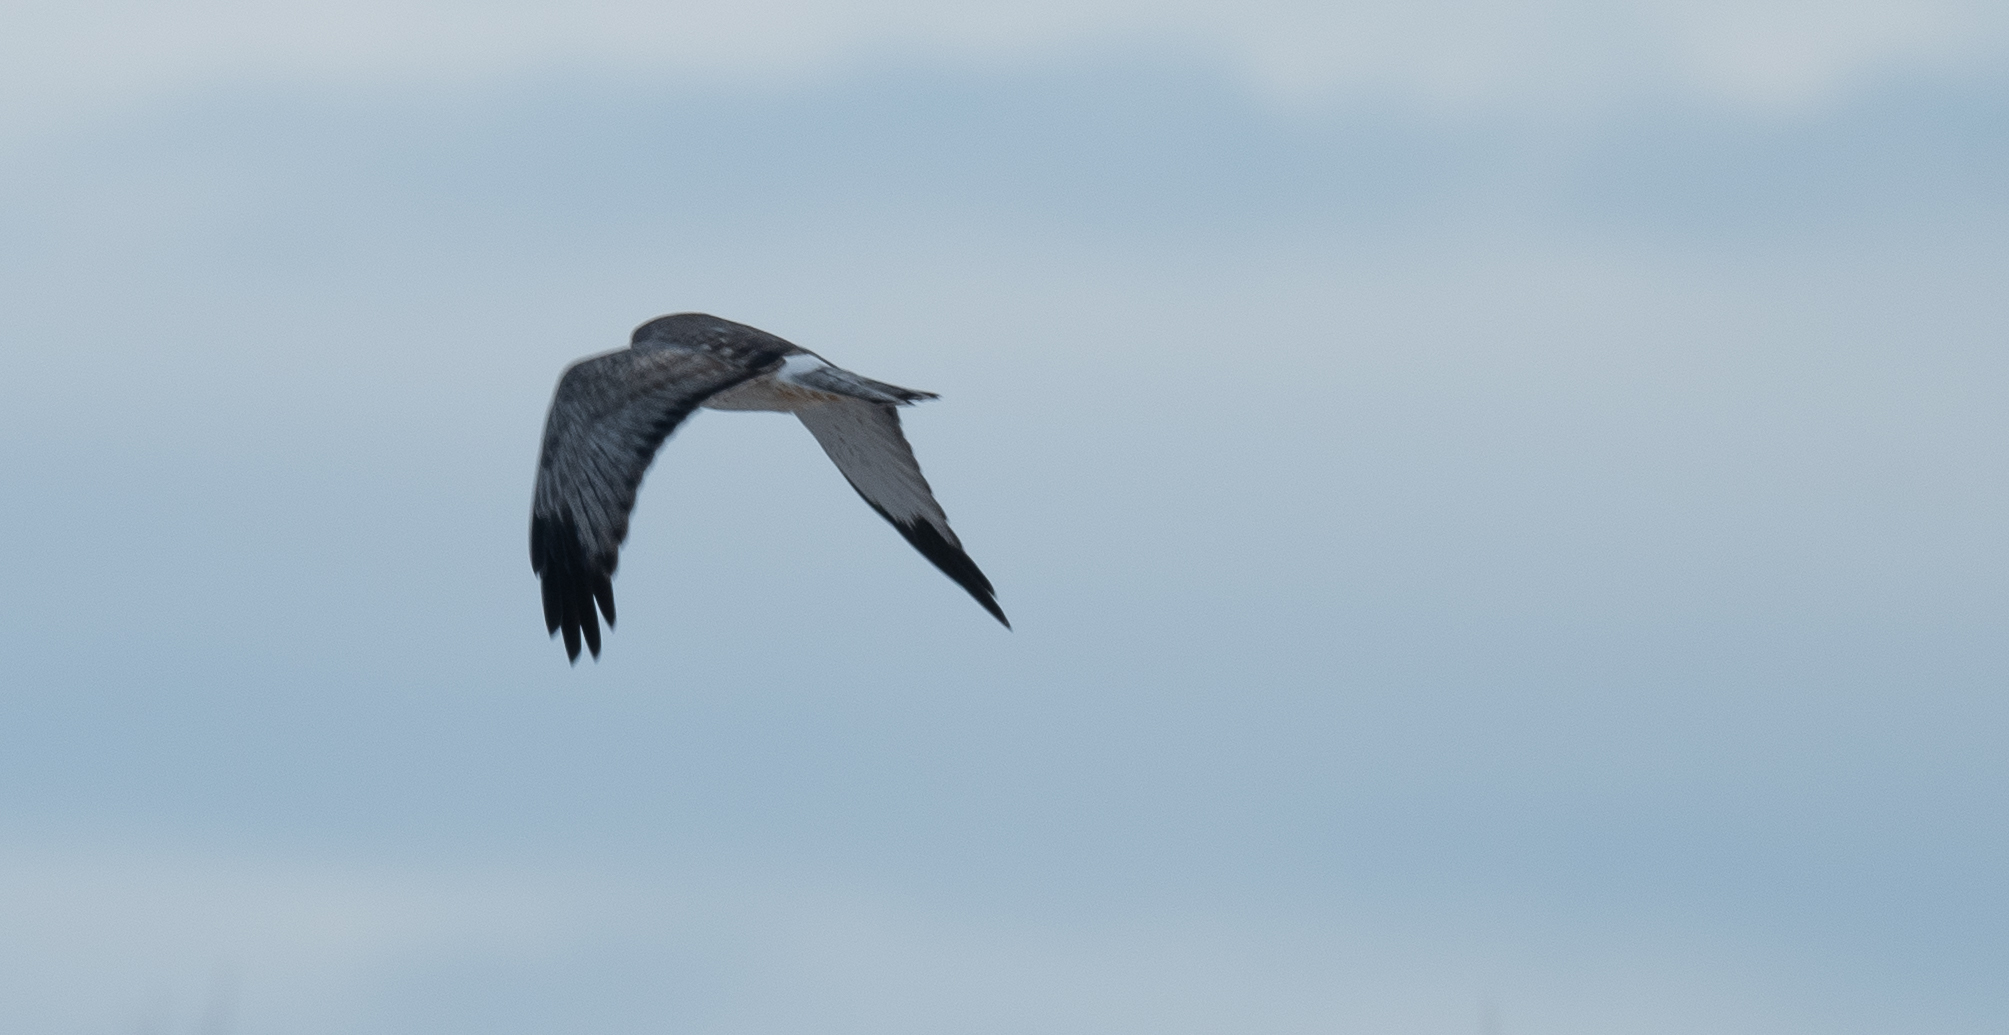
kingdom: Animalia
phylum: Chordata
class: Aves
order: Accipitriformes
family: Accipitridae
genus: Circus
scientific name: Circus cyaneus
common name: Hen harrier
